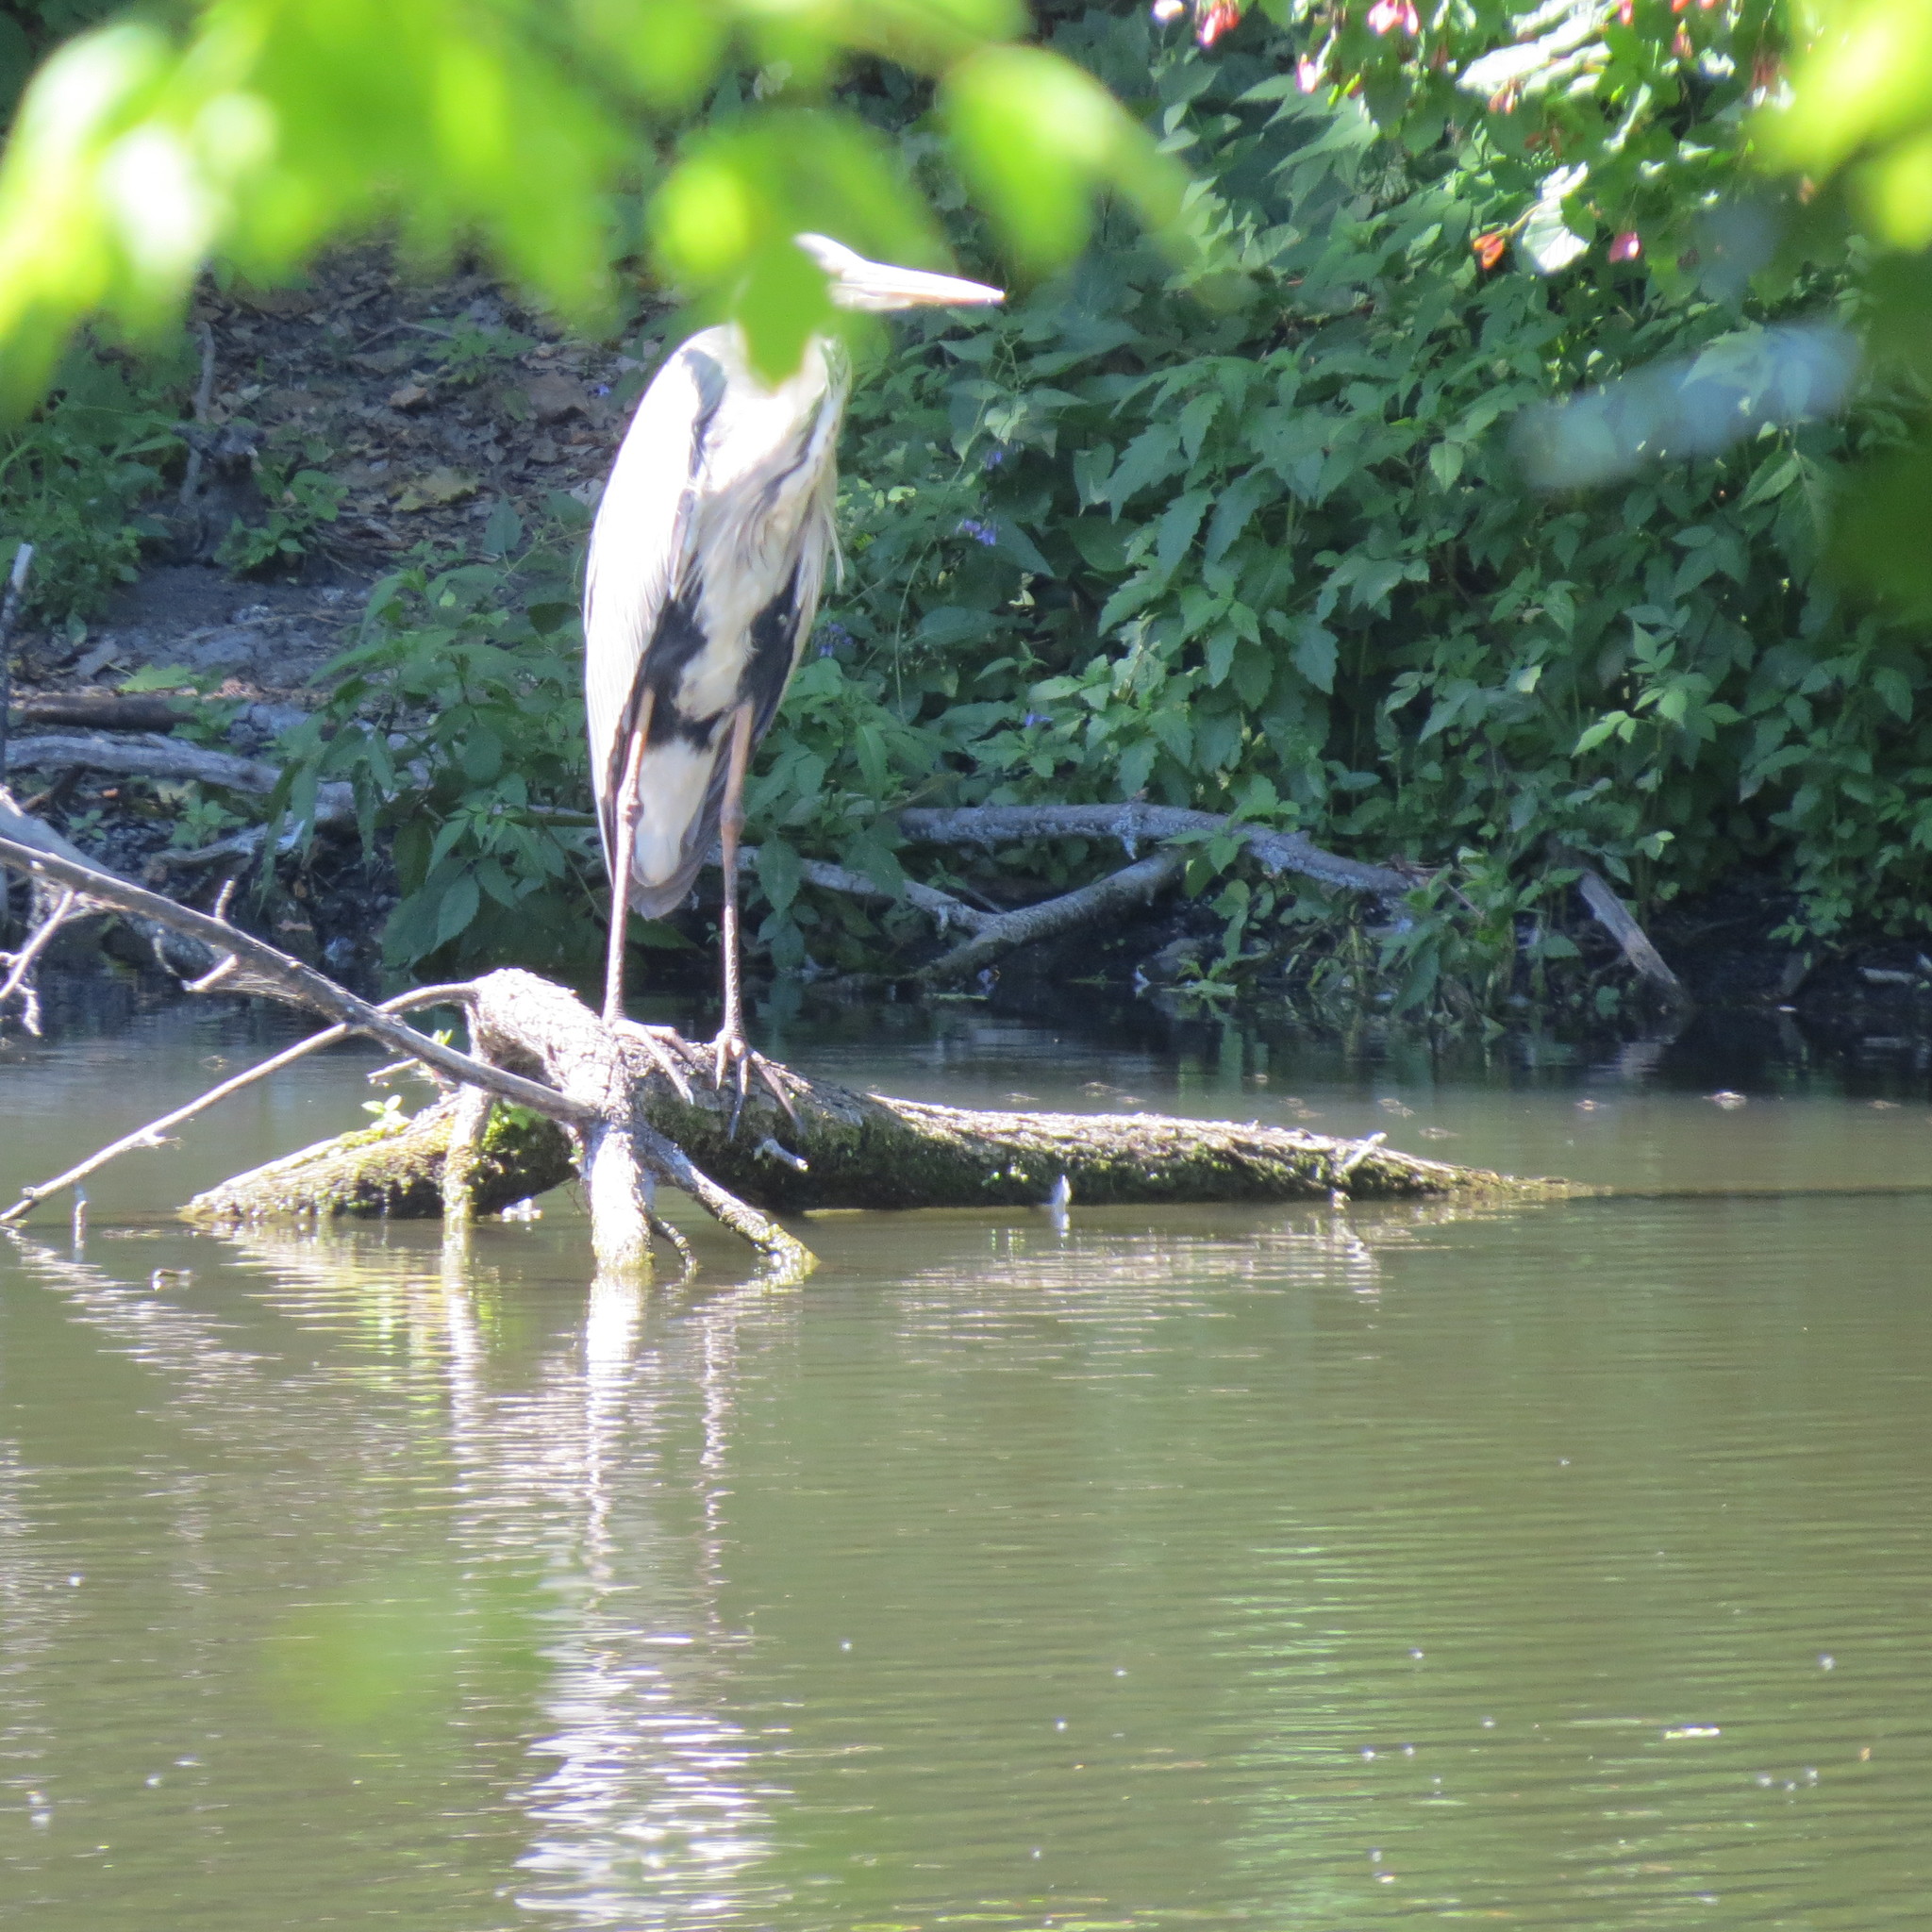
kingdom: Animalia
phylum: Chordata
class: Aves
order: Pelecaniformes
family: Ardeidae
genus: Ardea
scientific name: Ardea cinerea
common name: Grey heron
